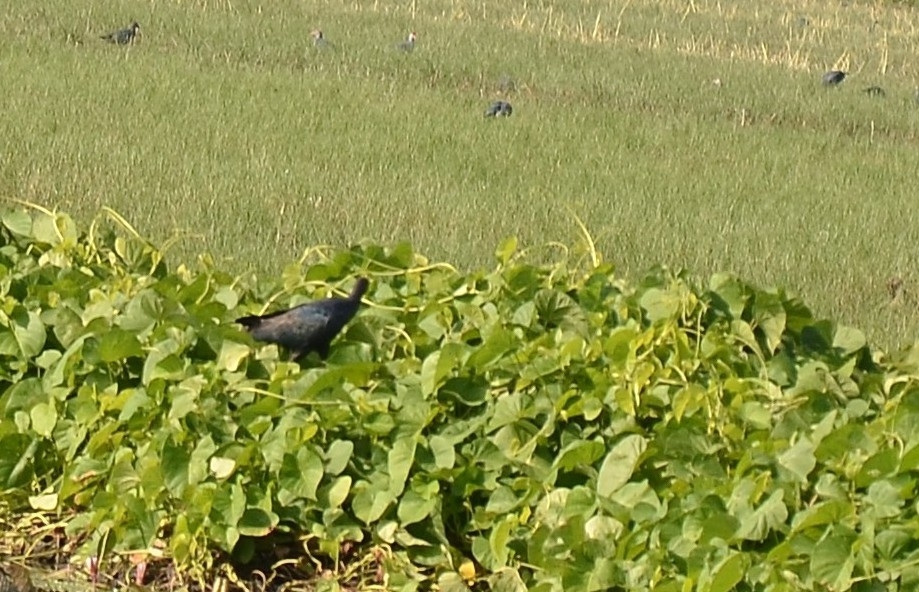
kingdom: Animalia
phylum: Chordata
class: Aves
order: Gruiformes
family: Rallidae
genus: Porphyrio
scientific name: Porphyrio porphyrio
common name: Purple swamphen
